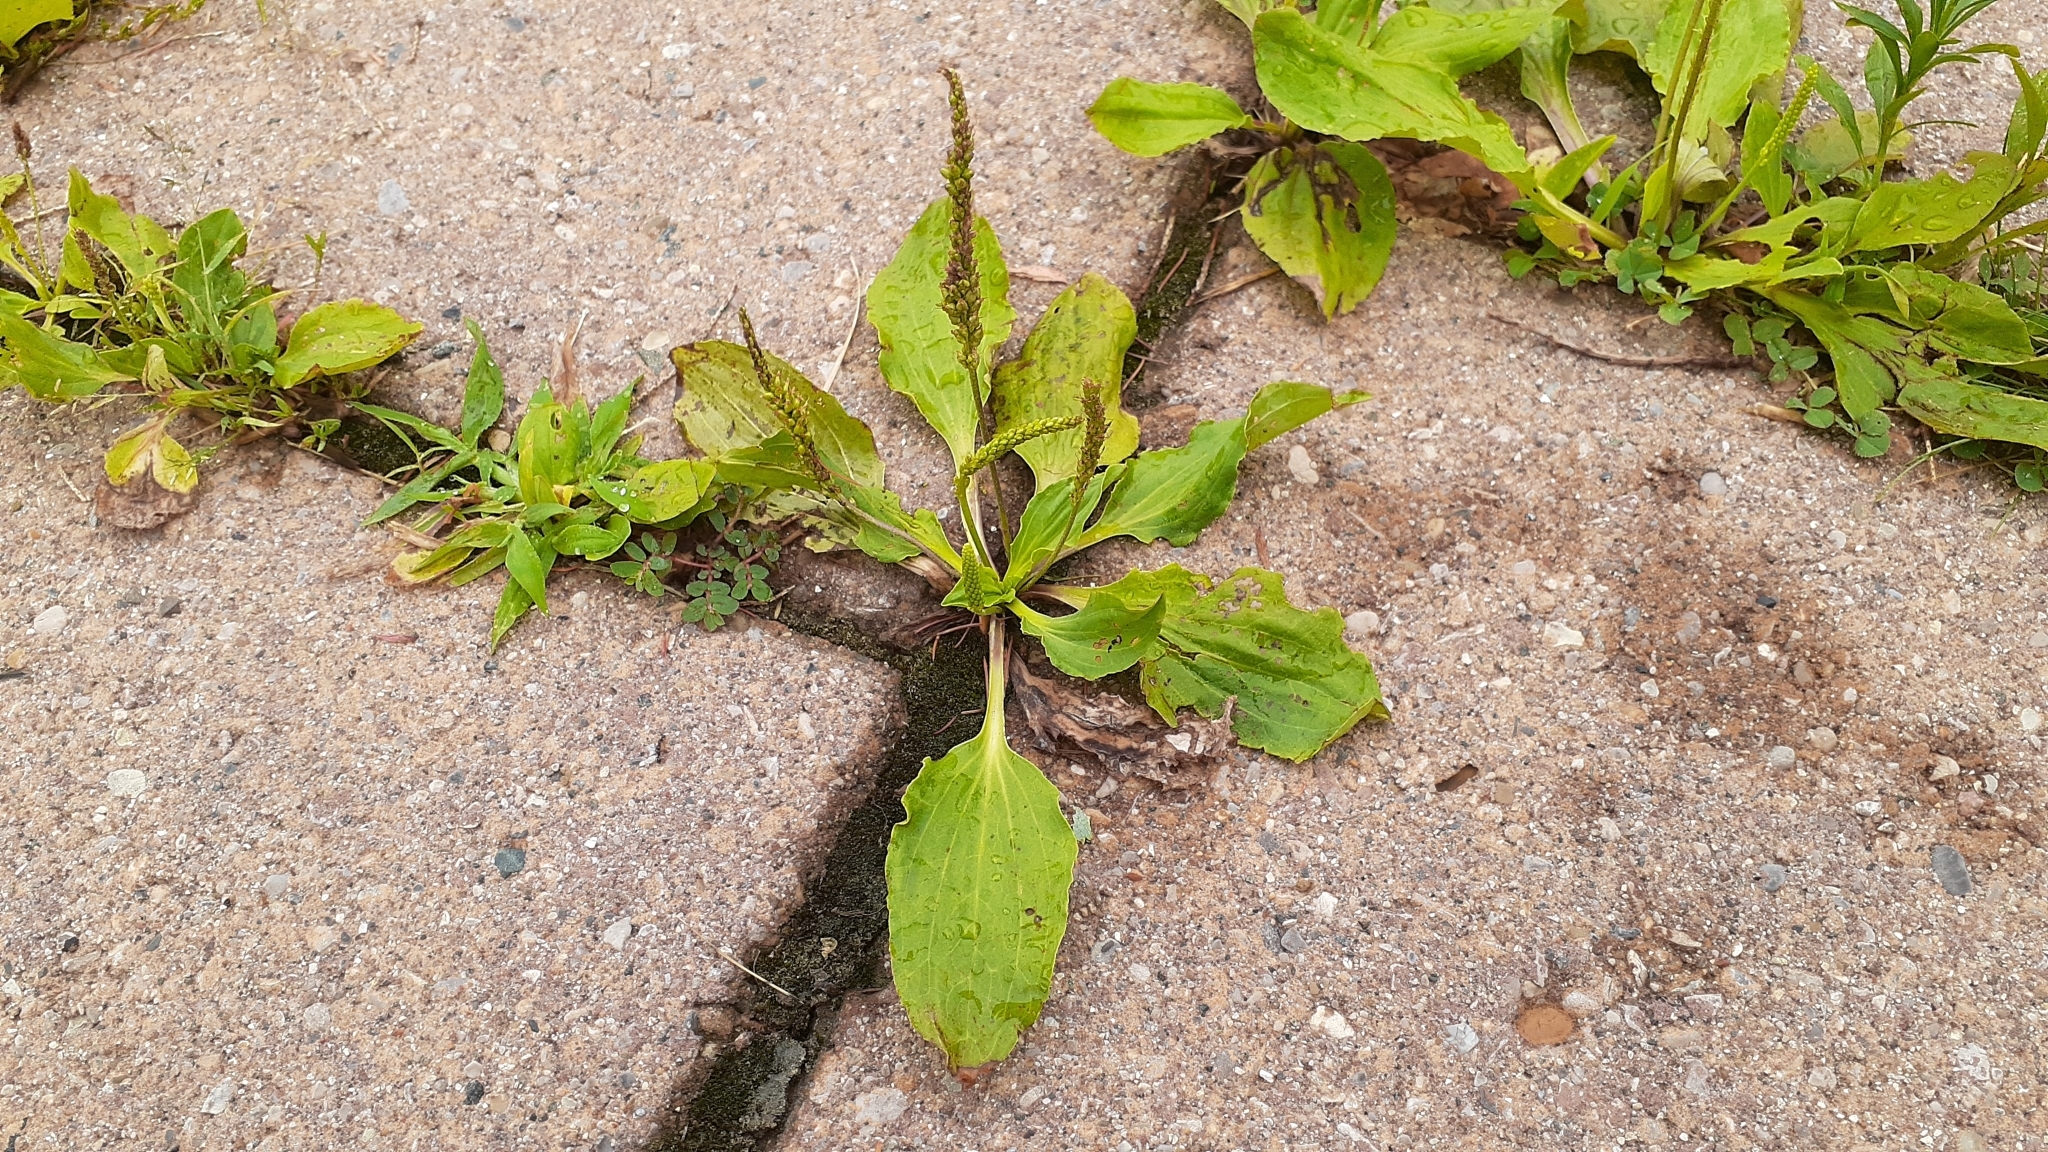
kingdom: Plantae
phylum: Tracheophyta
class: Magnoliopsida
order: Lamiales
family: Plantaginaceae
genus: Plantago
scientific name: Plantago major
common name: Common plantain
